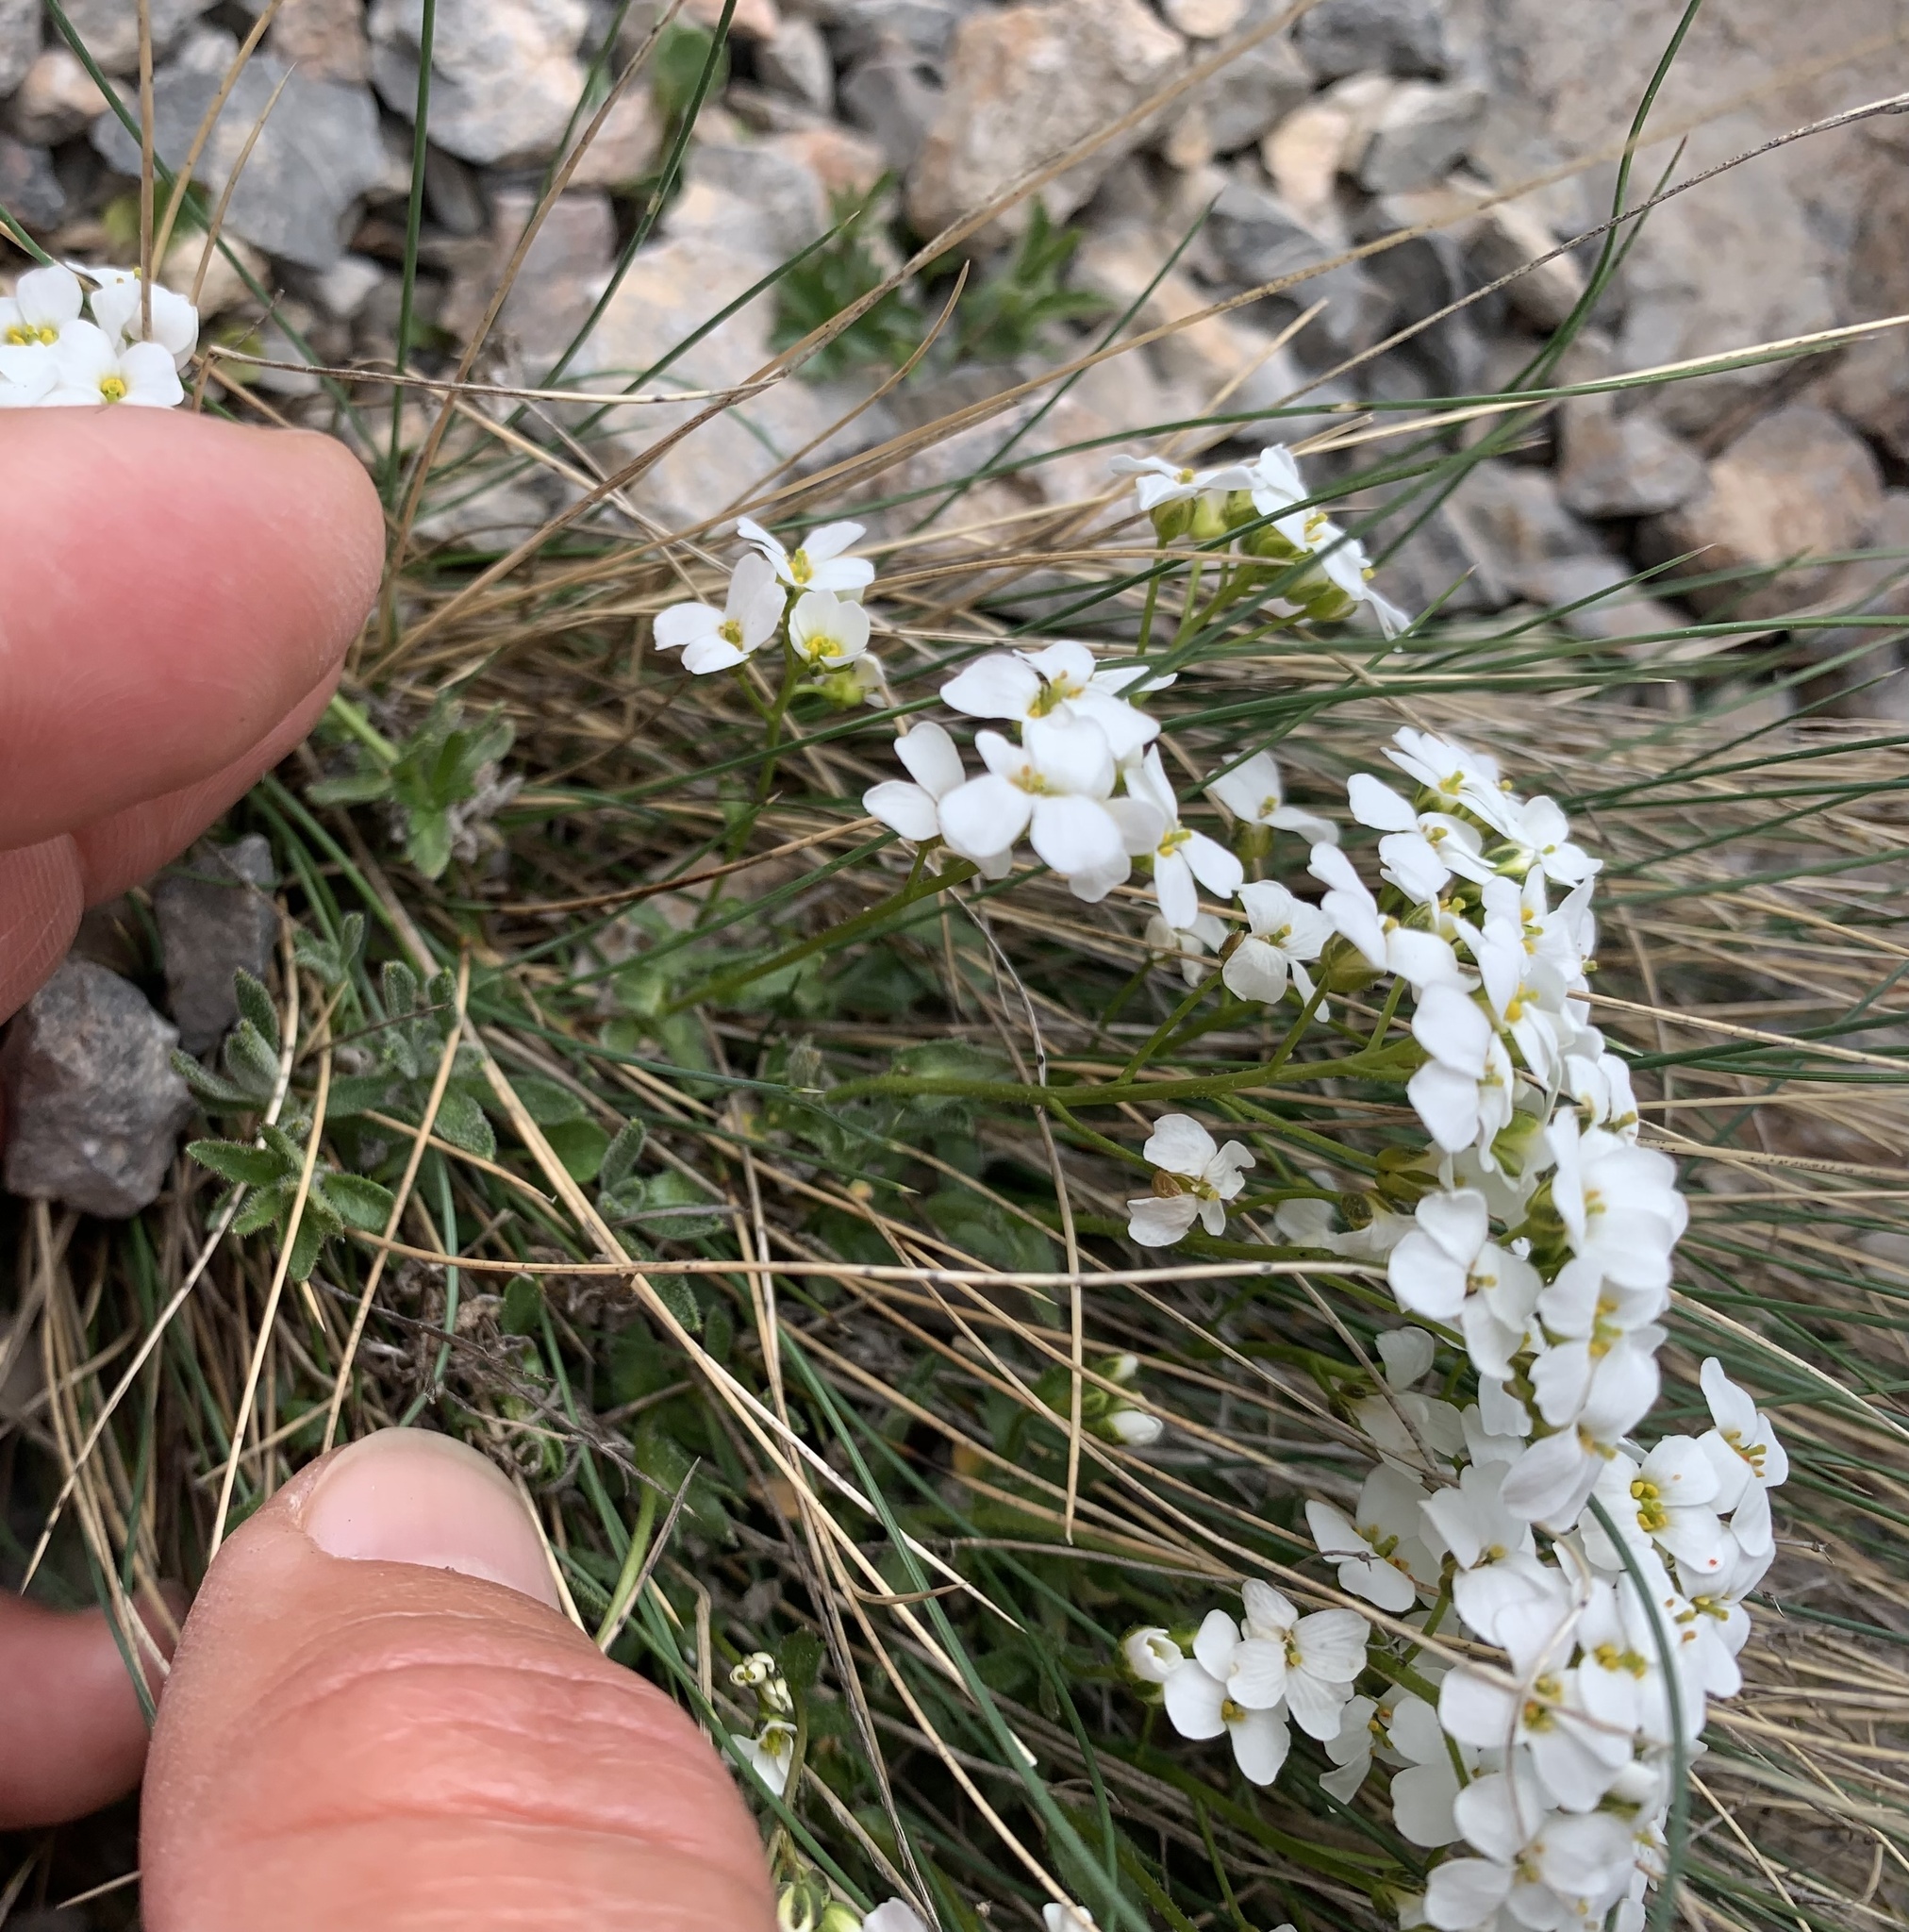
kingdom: Plantae
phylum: Tracheophyta
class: Magnoliopsida
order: Brassicales
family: Brassicaceae
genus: Arabis
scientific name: Arabis alpina
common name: Alpine rock-cress
